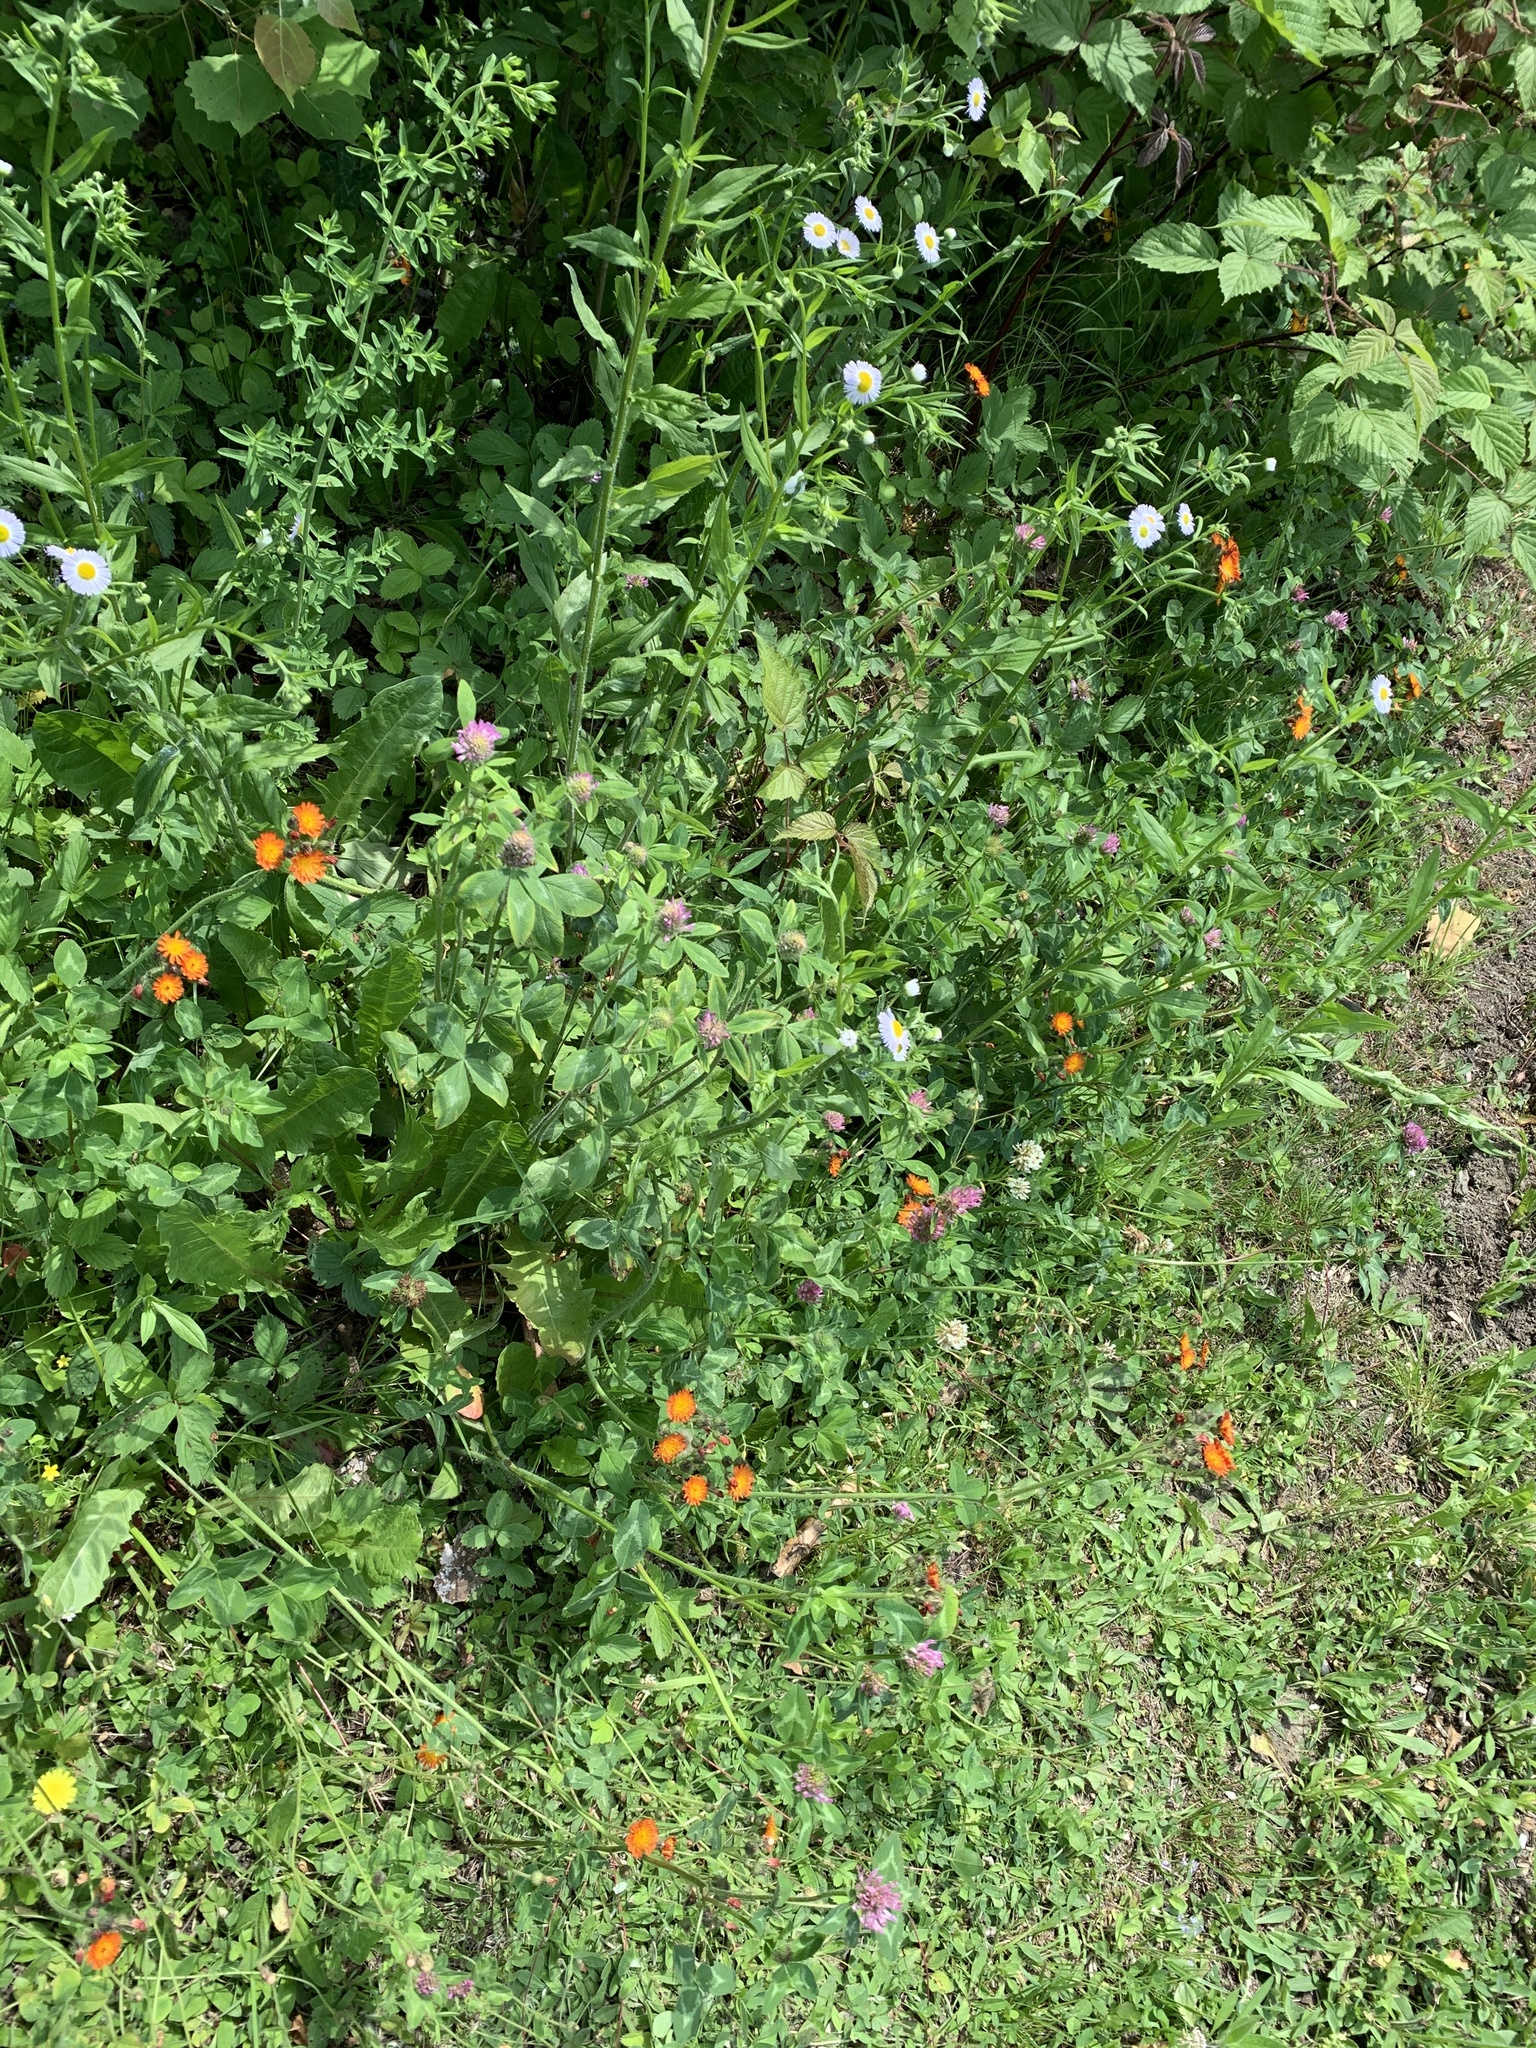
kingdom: Plantae
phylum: Tracheophyta
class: Magnoliopsida
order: Fabales
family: Fabaceae
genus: Trifolium
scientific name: Trifolium pratense
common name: Red clover
